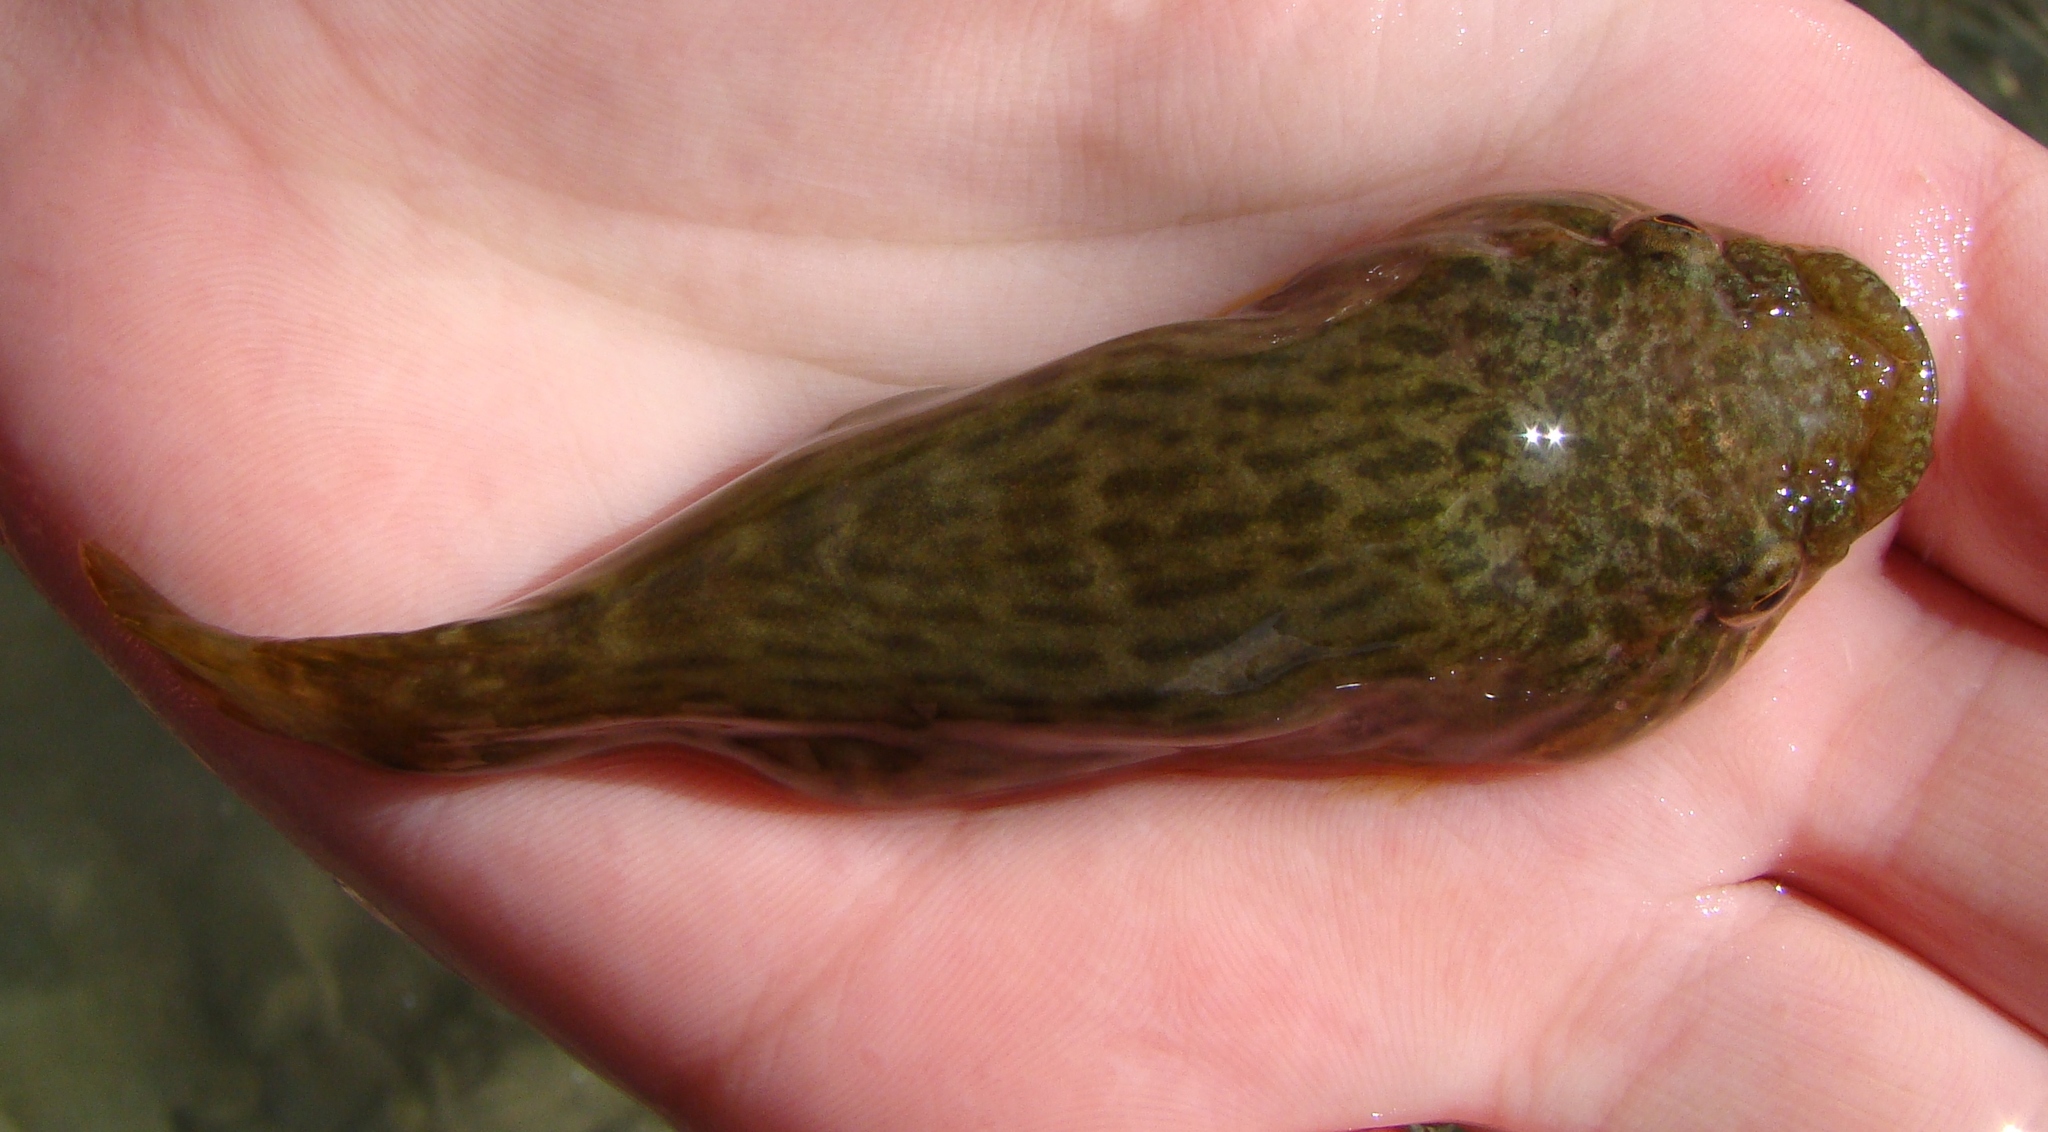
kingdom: Animalia
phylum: Chordata
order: Gobiesociformes
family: Gobiesocidae
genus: Trachelochismus
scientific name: Trachelochismus pinnulatus
